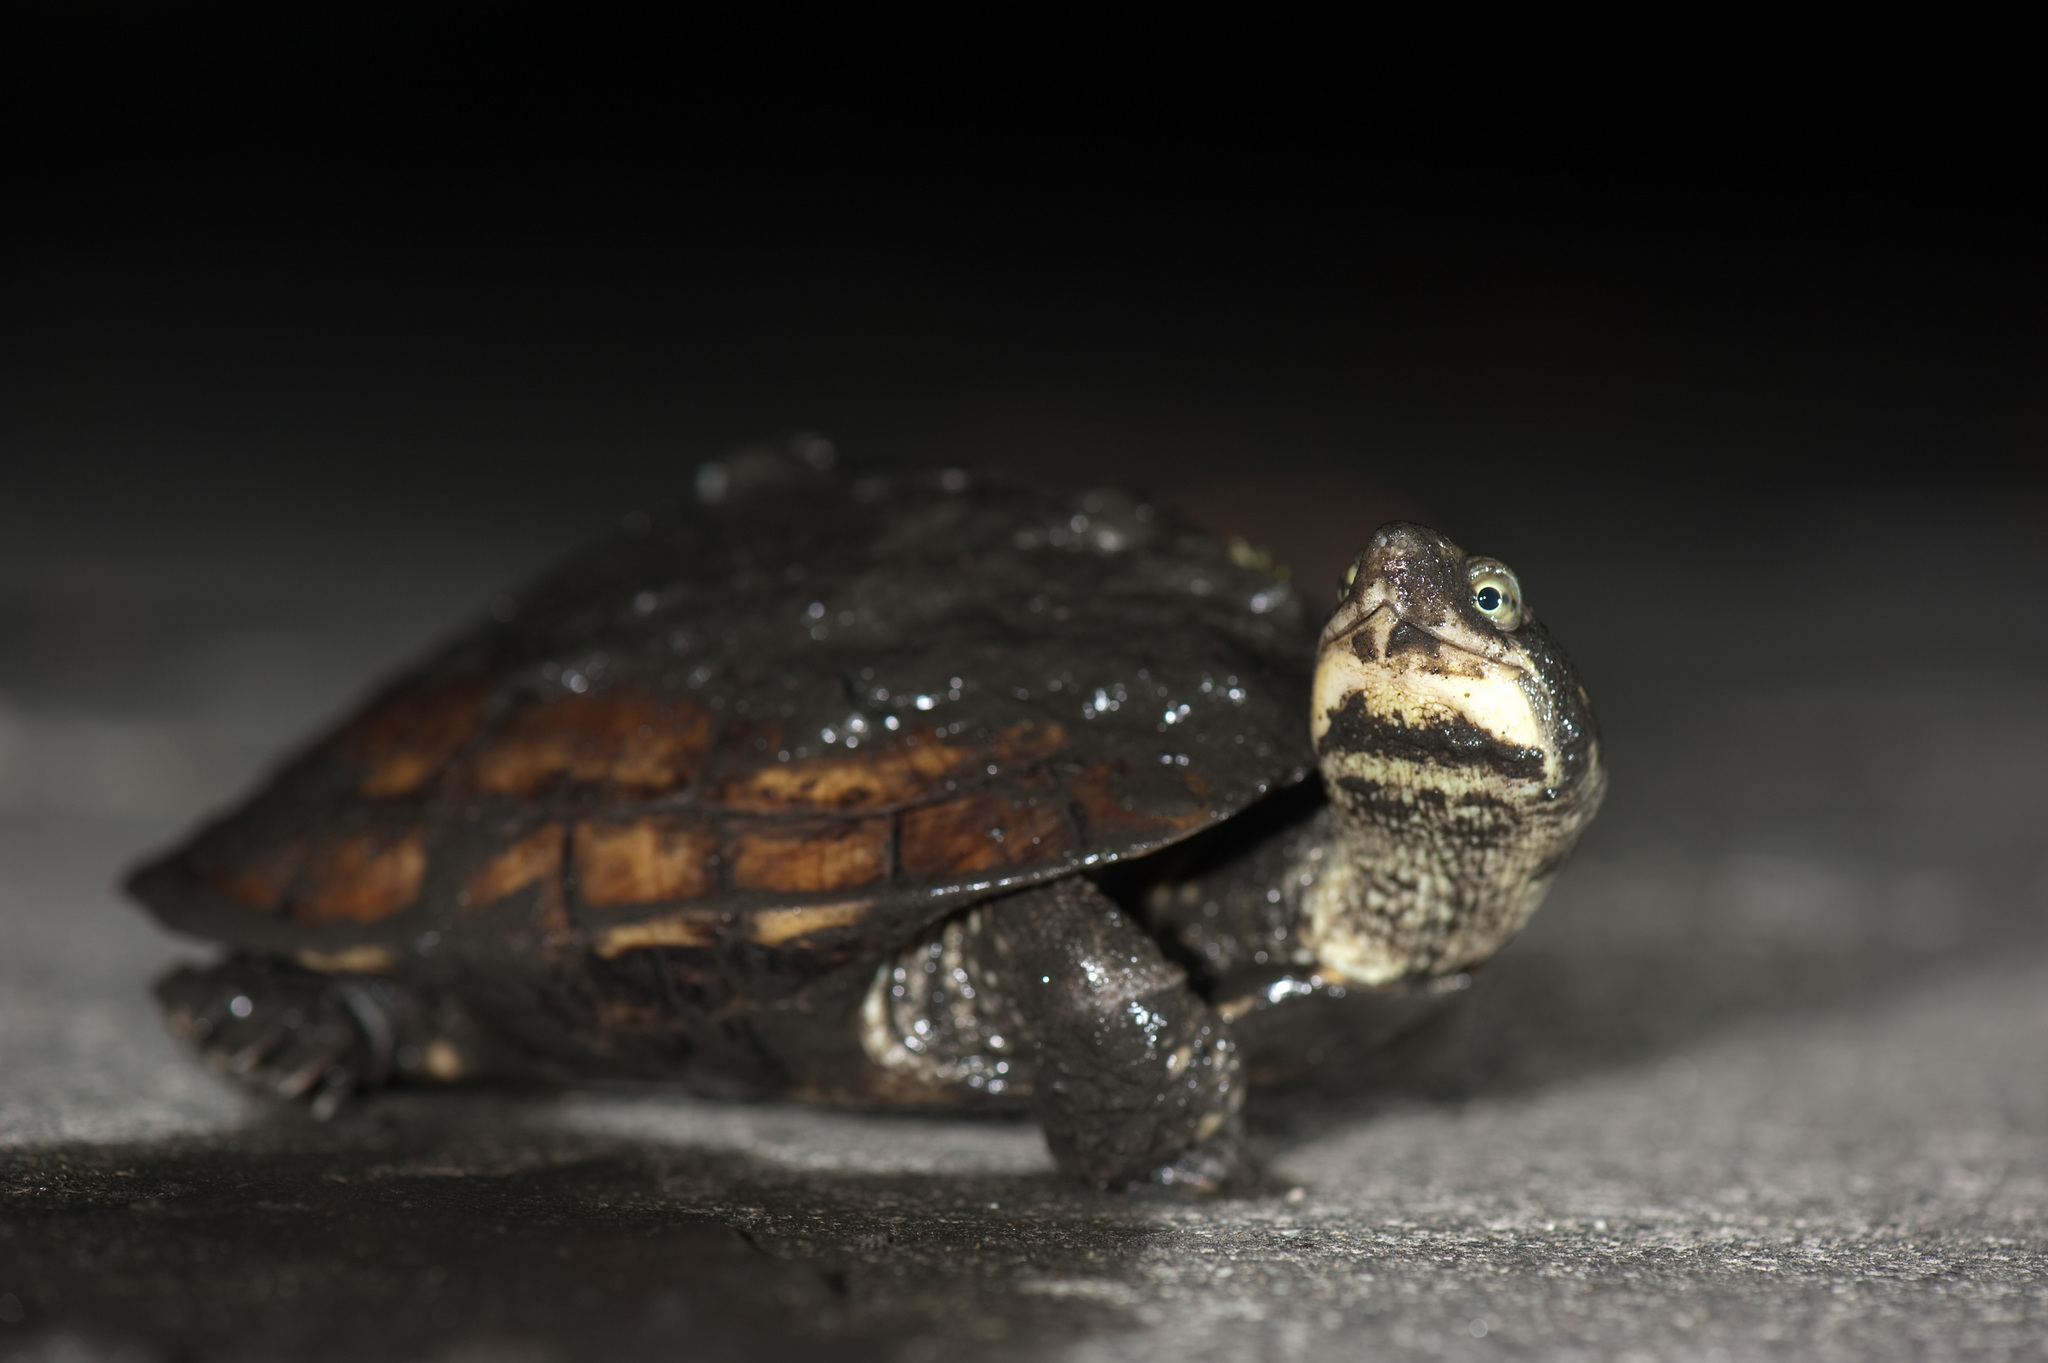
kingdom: Animalia
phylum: Chordata
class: Testudines
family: Geoemydidae
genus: Mauremys
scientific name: Mauremys mutica
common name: Yellow pond turtle
